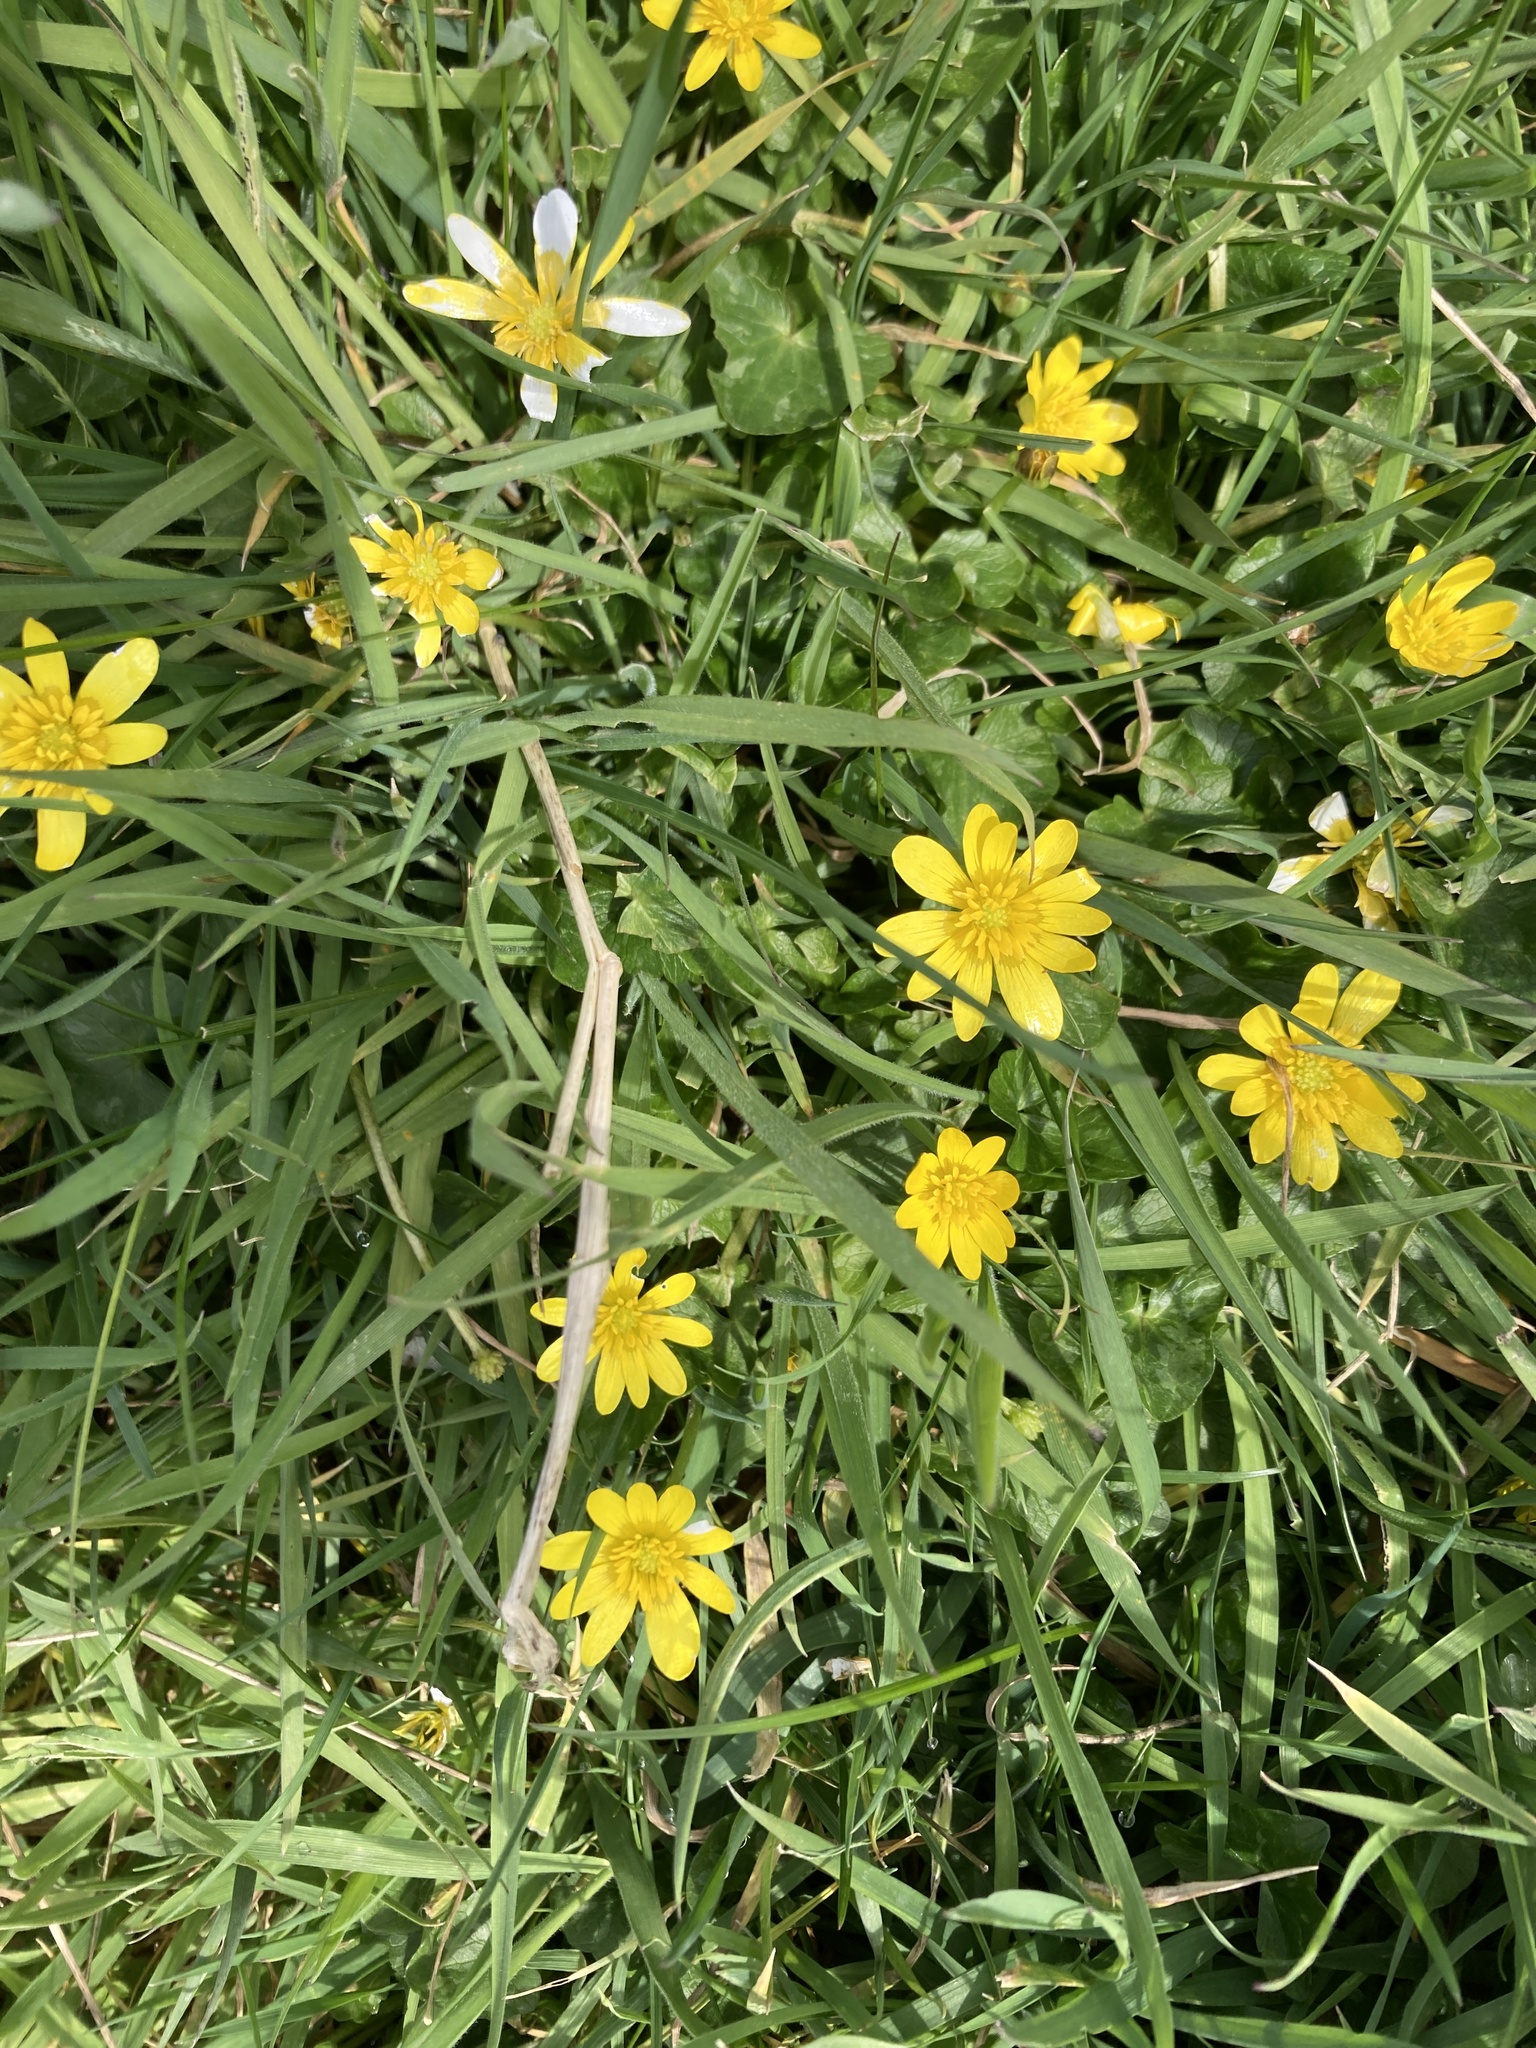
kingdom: Plantae
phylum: Tracheophyta
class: Magnoliopsida
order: Ranunculales
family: Ranunculaceae
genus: Ficaria
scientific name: Ficaria verna
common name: Lesser celandine
